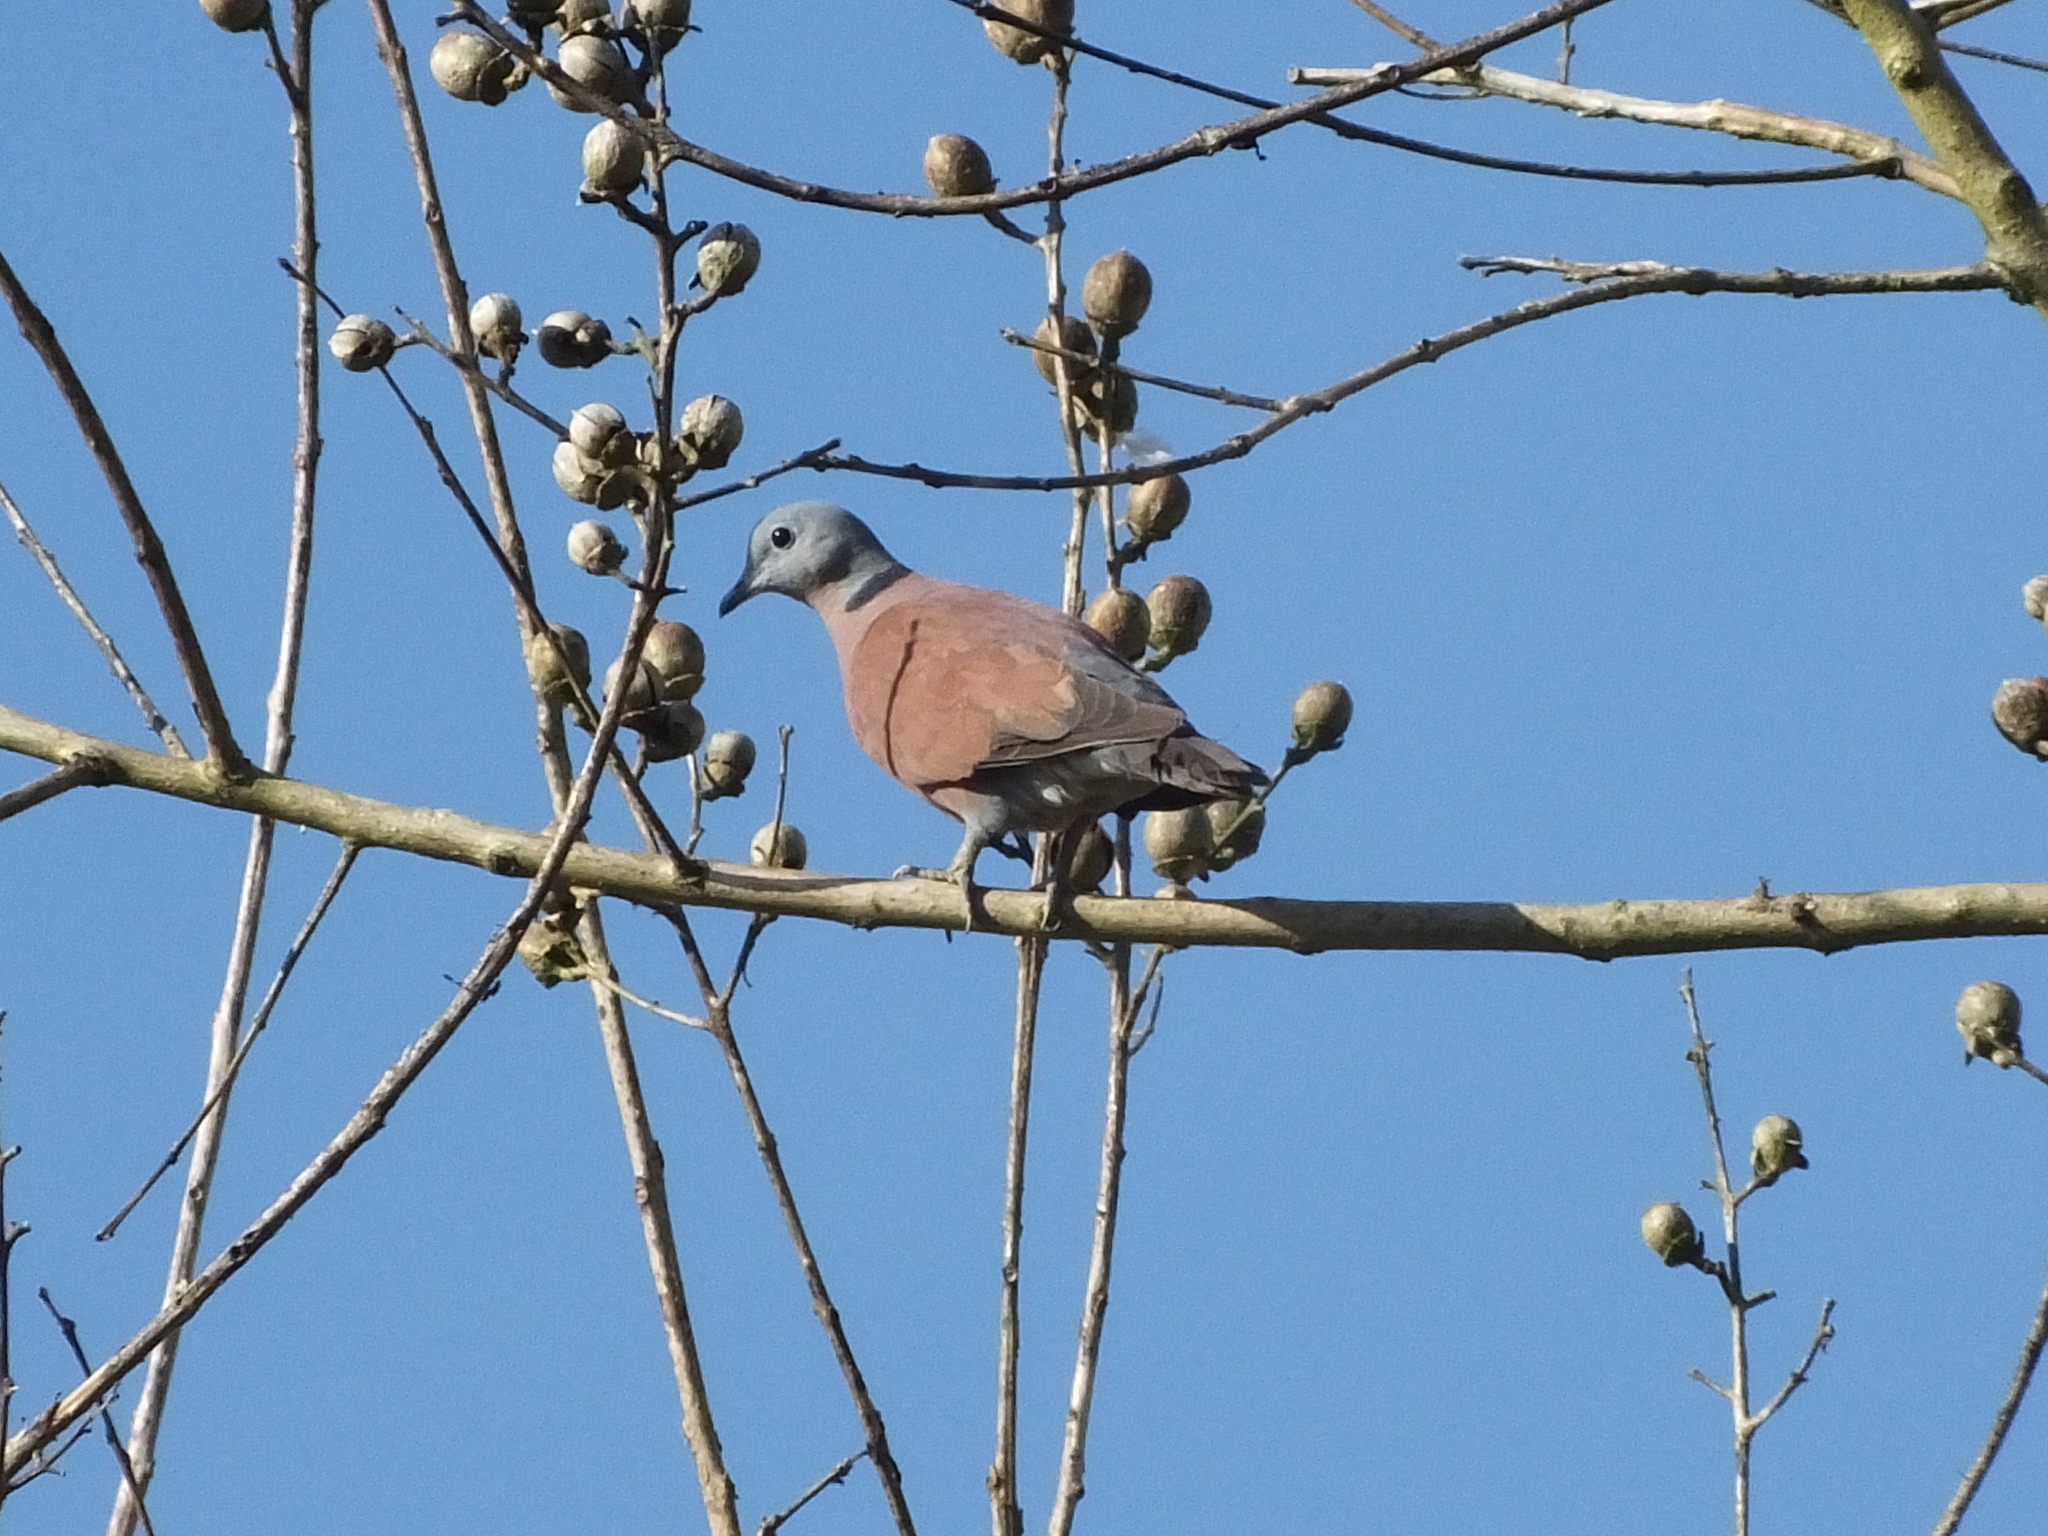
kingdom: Animalia
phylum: Chordata
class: Aves
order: Columbiformes
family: Columbidae
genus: Streptopelia
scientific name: Streptopelia tranquebarica
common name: Red turtle dove
